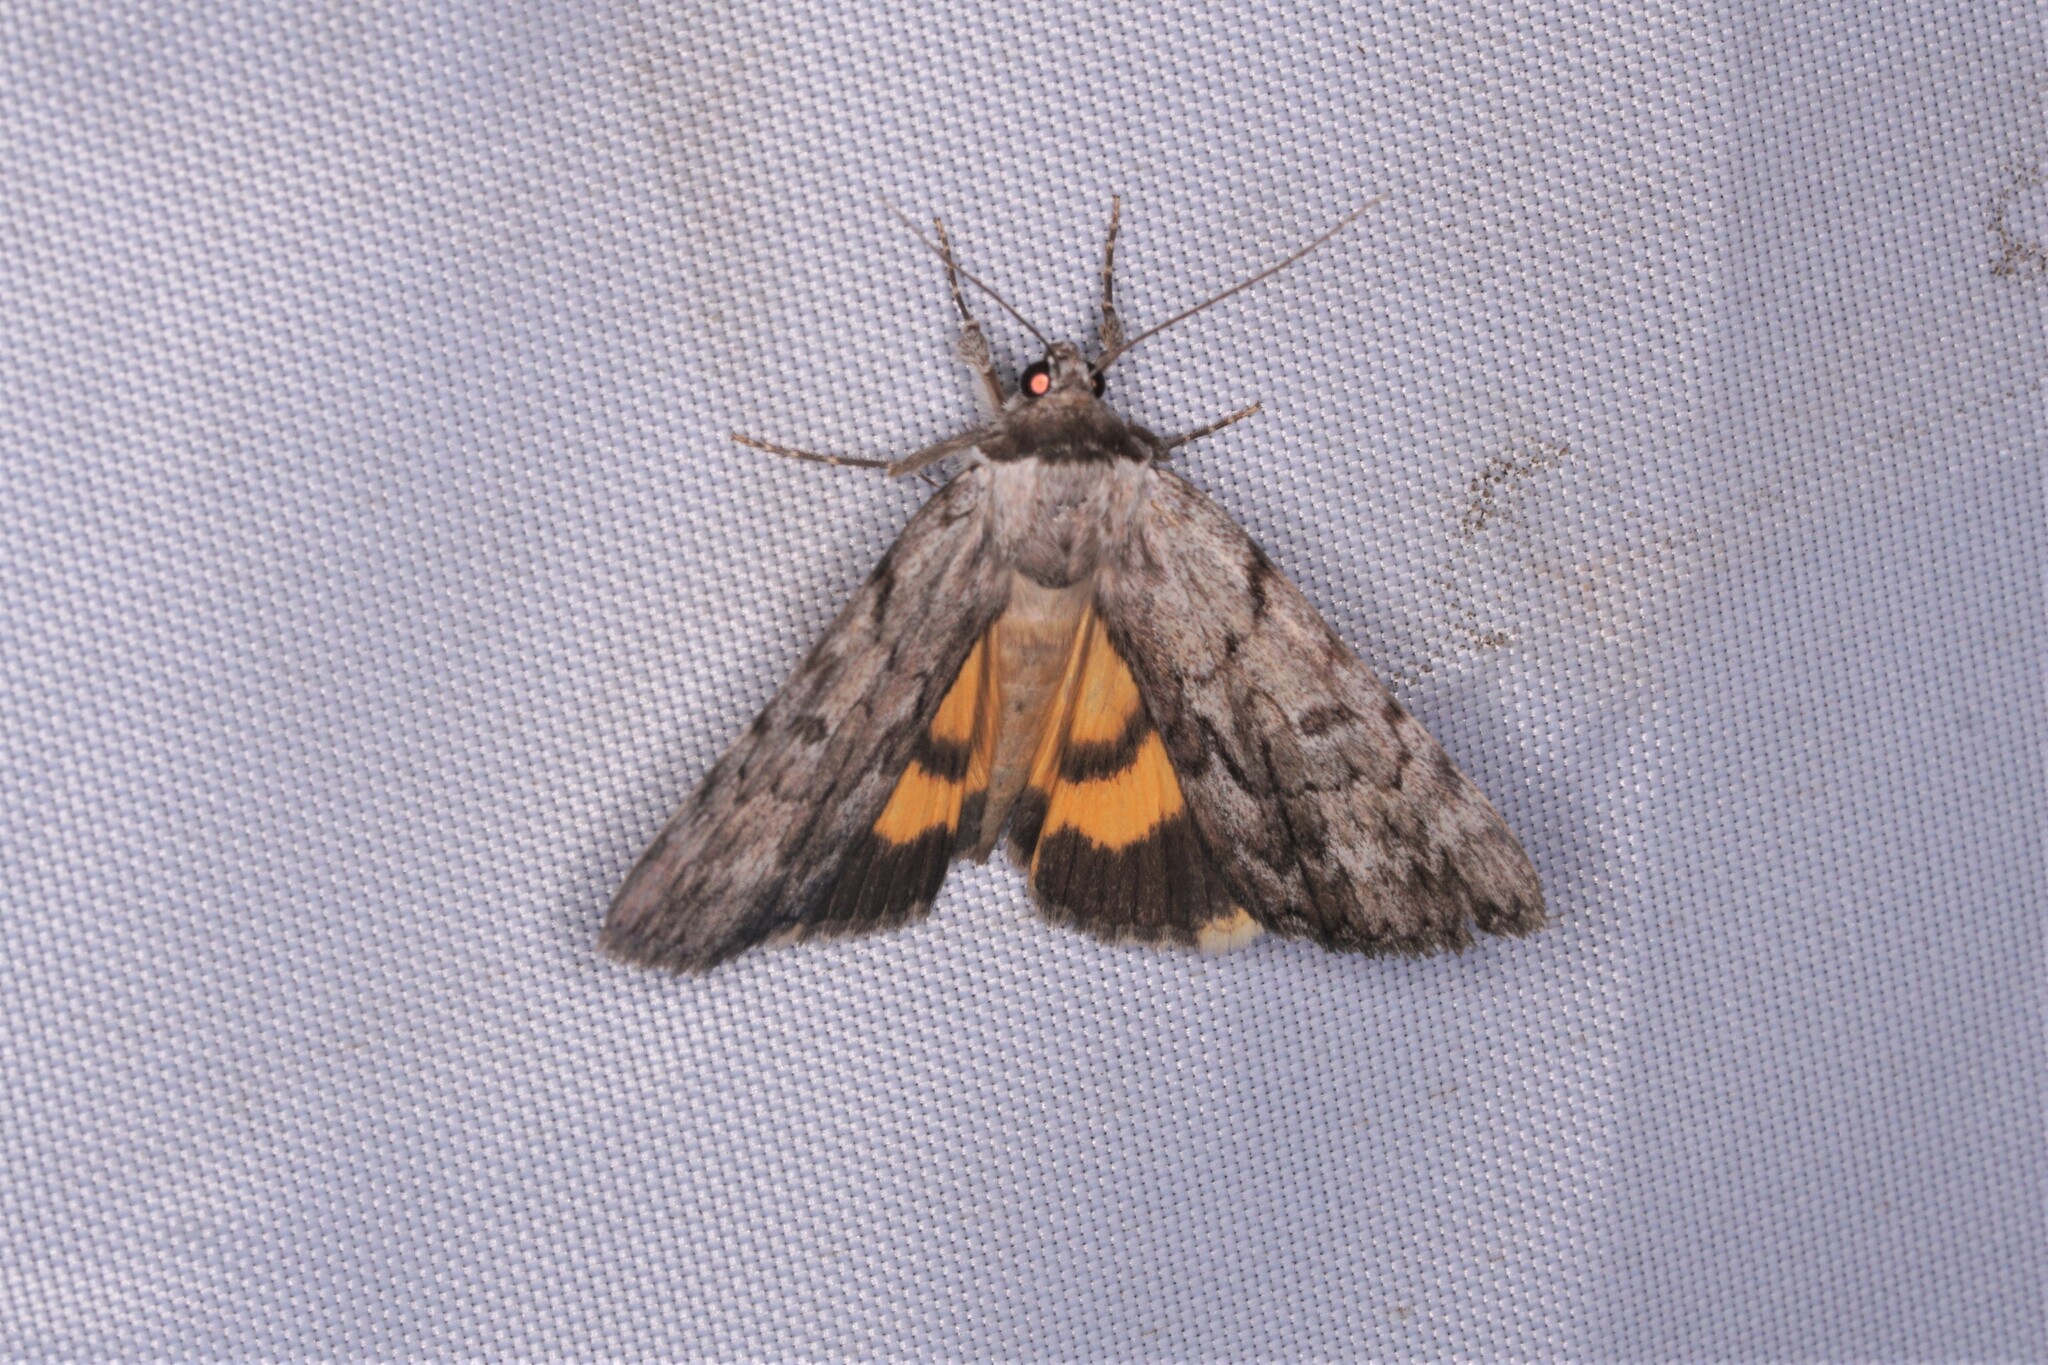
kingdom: Animalia
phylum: Arthropoda
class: Insecta
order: Lepidoptera
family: Erebidae
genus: Catocala
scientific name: Catocala sordida
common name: Sordid underwing
